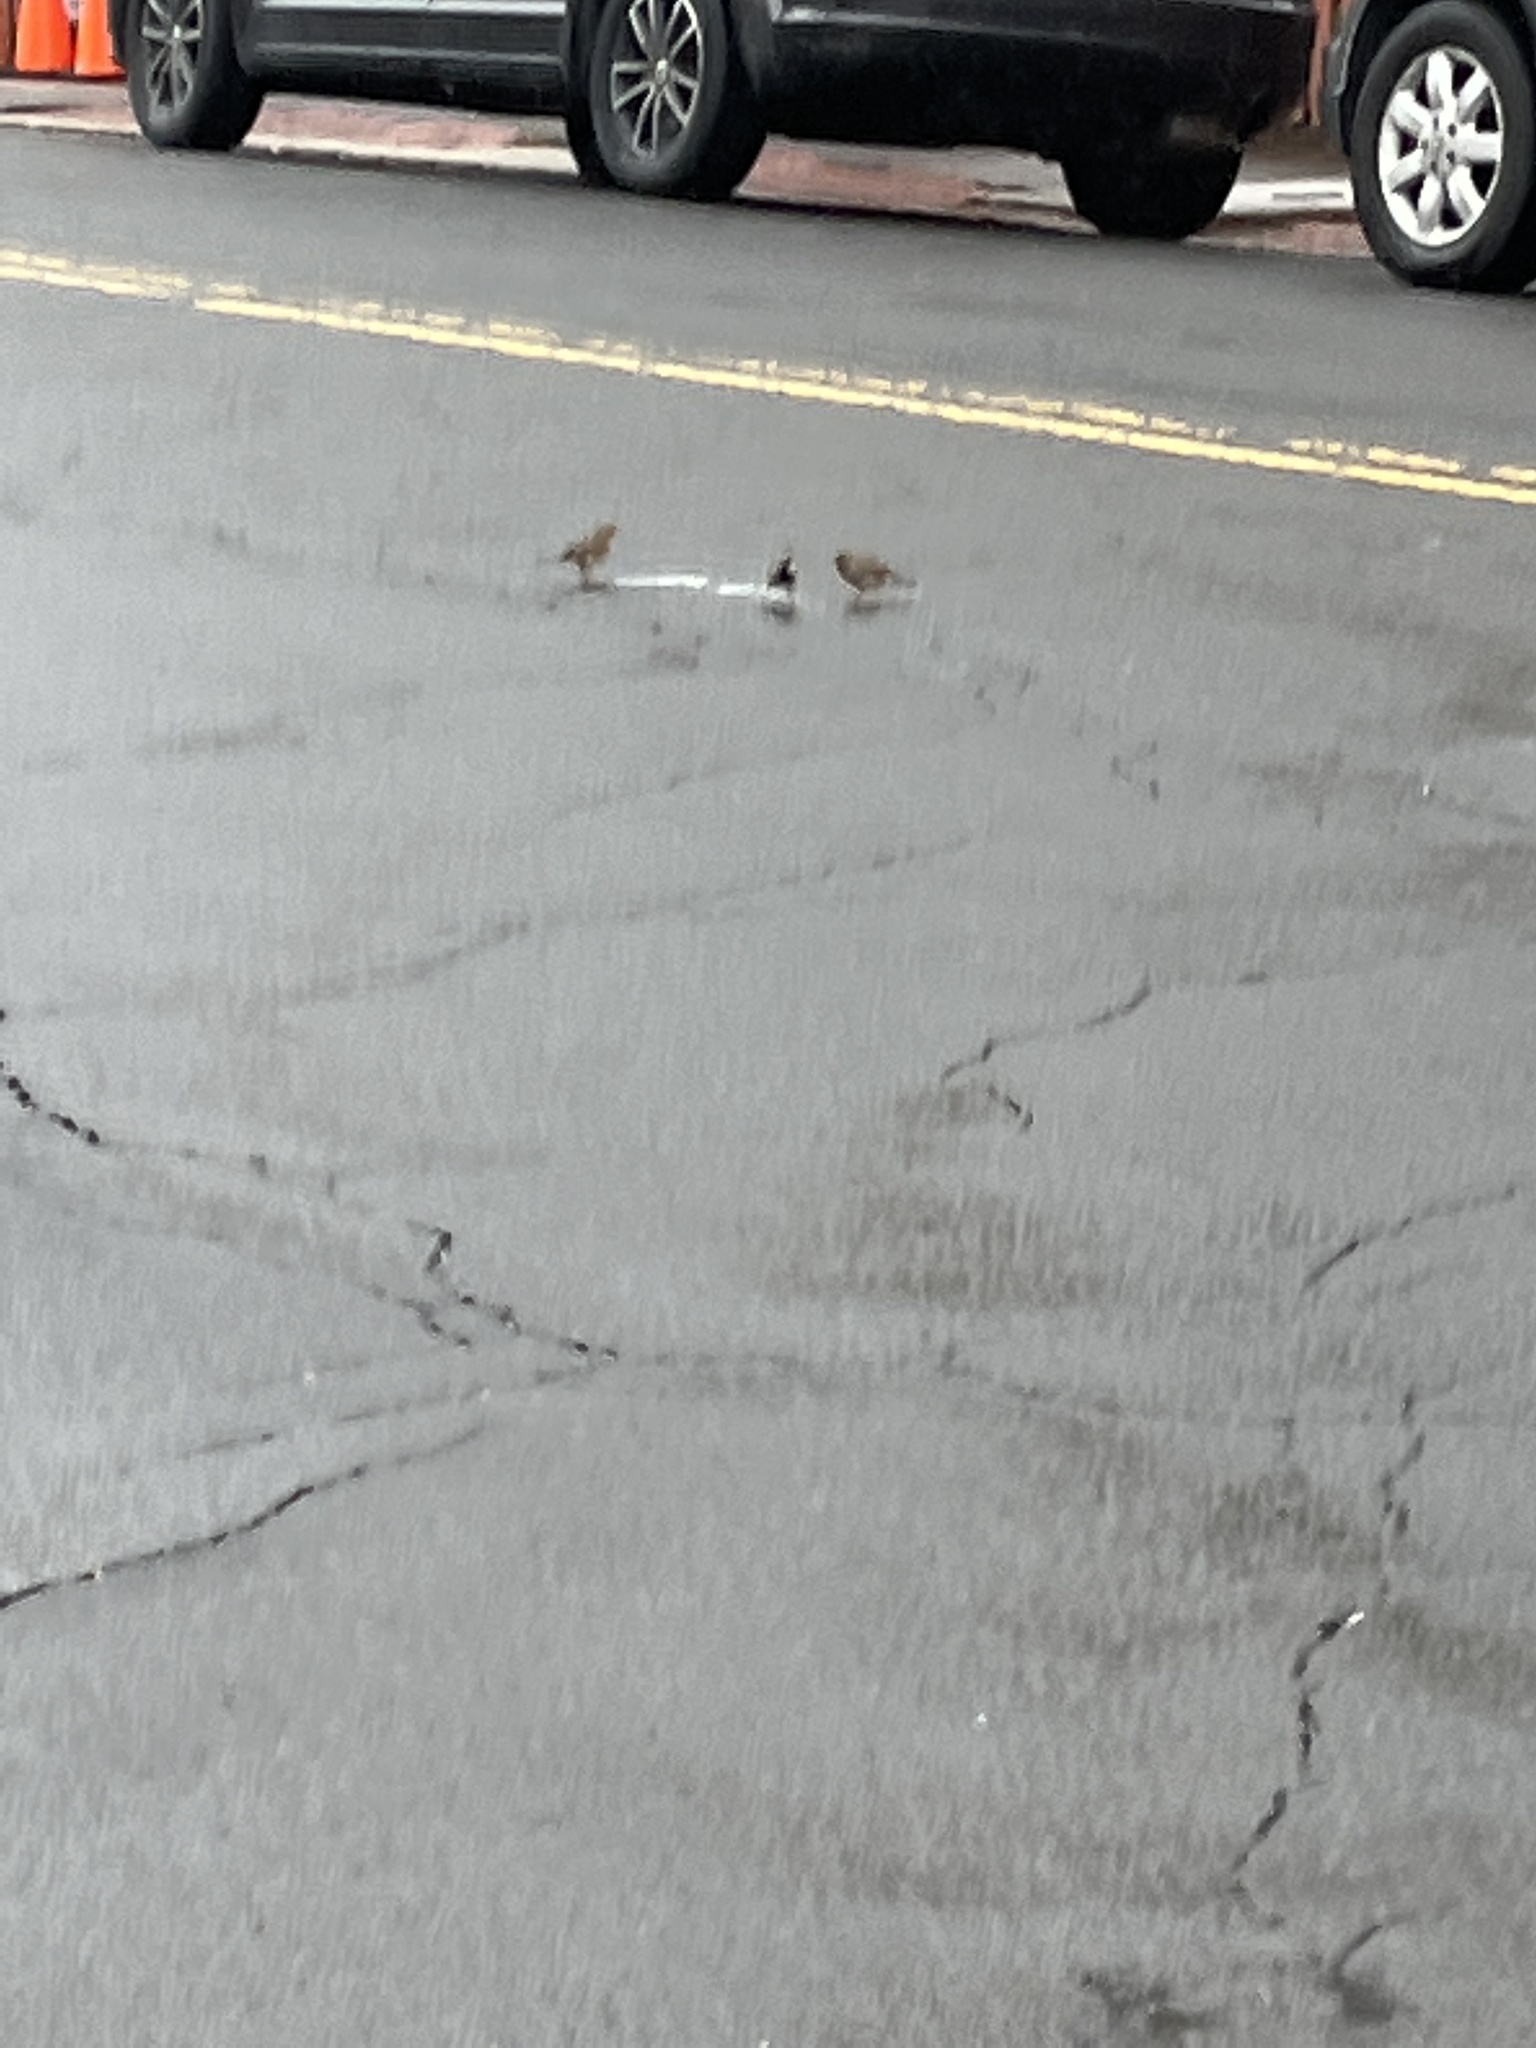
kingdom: Animalia
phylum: Chordata
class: Aves
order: Passeriformes
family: Passeridae
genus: Passer
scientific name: Passer domesticus
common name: House sparrow
